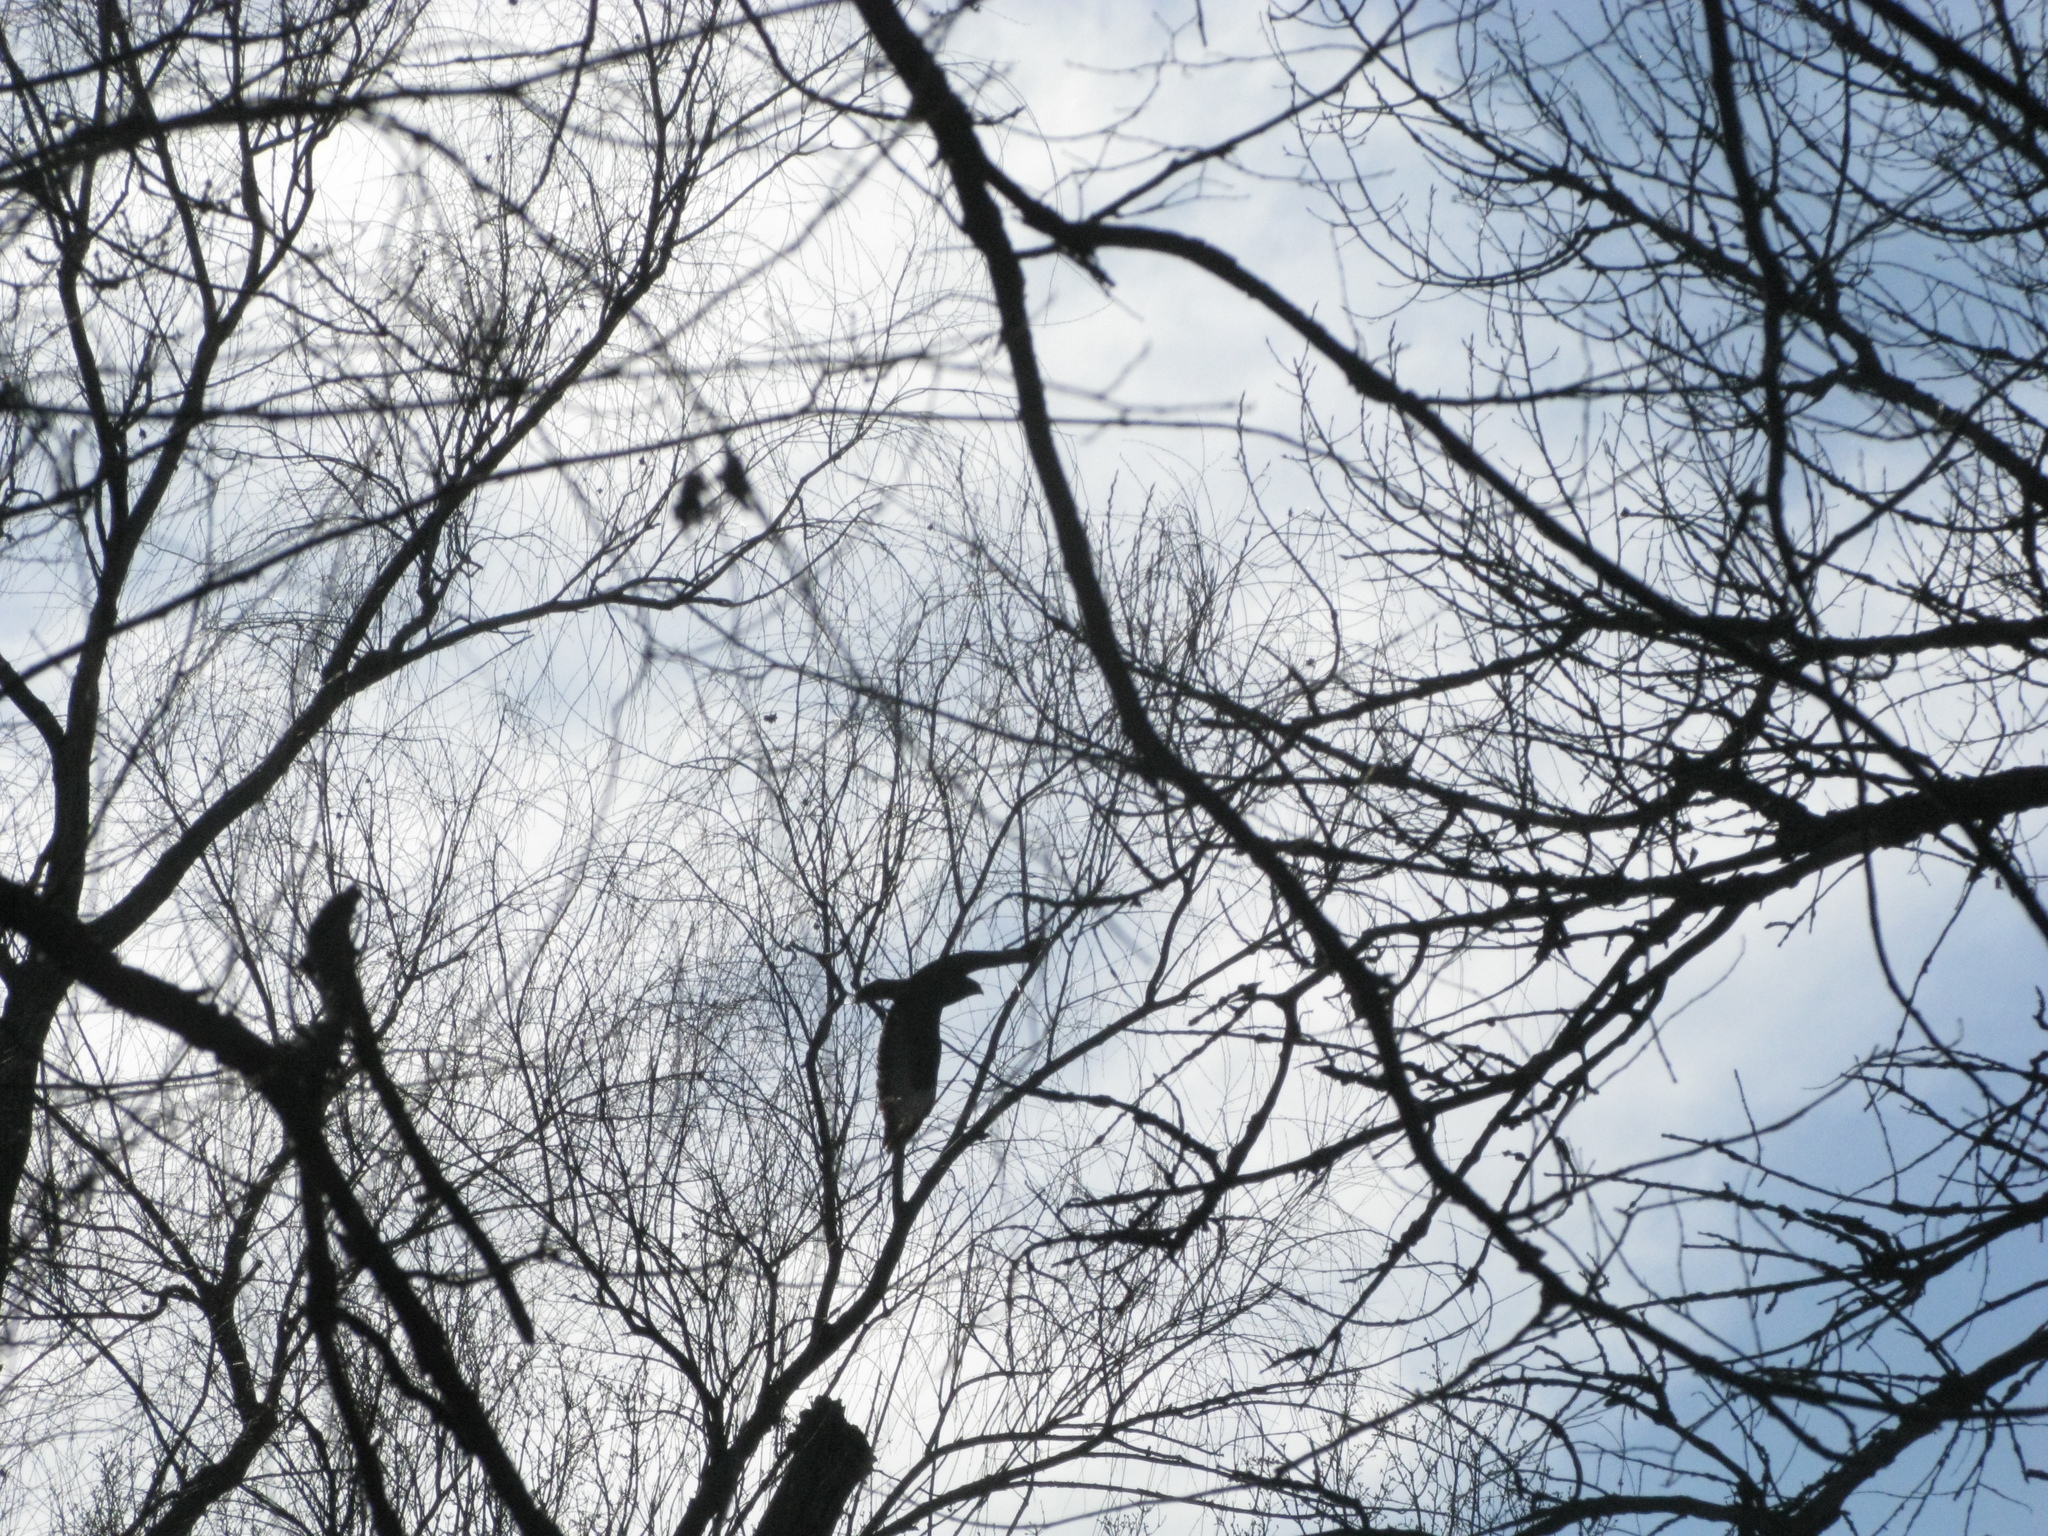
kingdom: Animalia
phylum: Chordata
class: Aves
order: Accipitriformes
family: Accipitridae
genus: Buteo
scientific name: Buteo buteo
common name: Common buzzard
